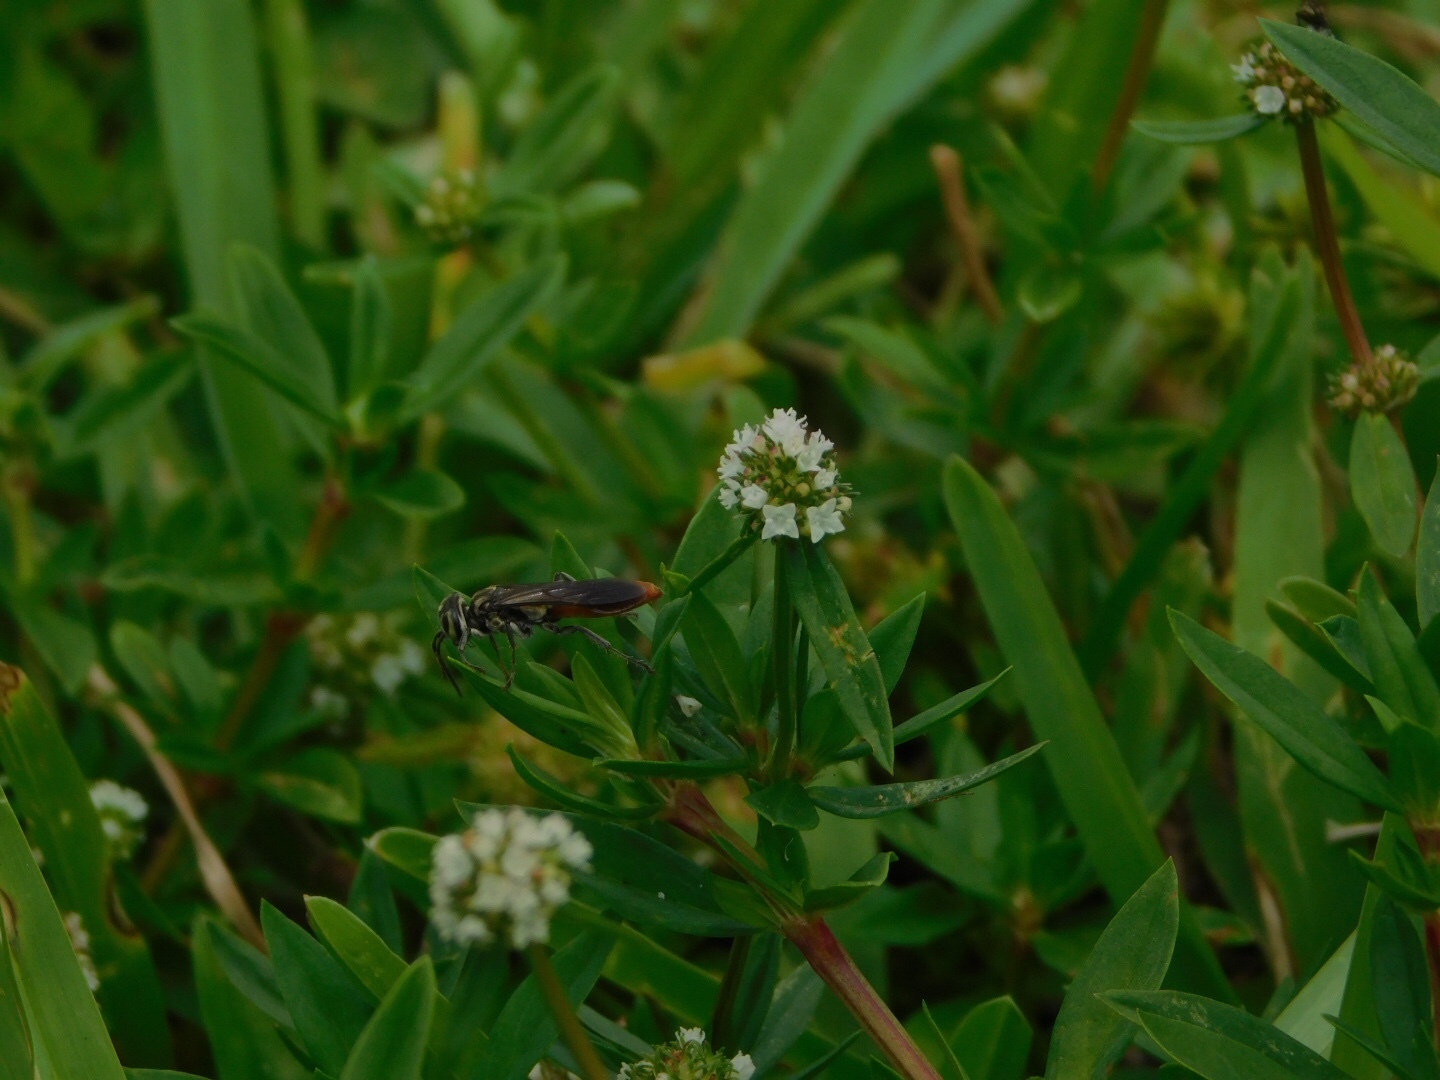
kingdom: Animalia
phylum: Arthropoda
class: Insecta
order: Hymenoptera
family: Crabronidae
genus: Larra
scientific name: Larra bicolor
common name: Wasp
